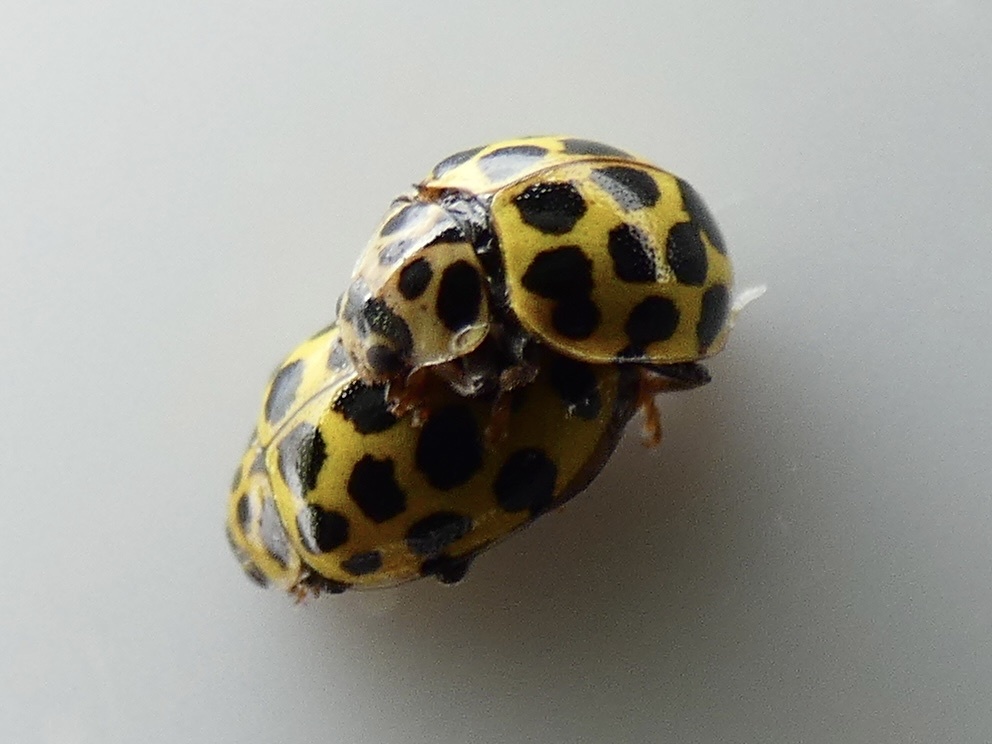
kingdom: Animalia
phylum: Arthropoda
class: Insecta
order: Coleoptera
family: Coccinellidae
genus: Psyllobora
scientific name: Psyllobora vigintiduopunctata
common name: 22-spot ladybird
